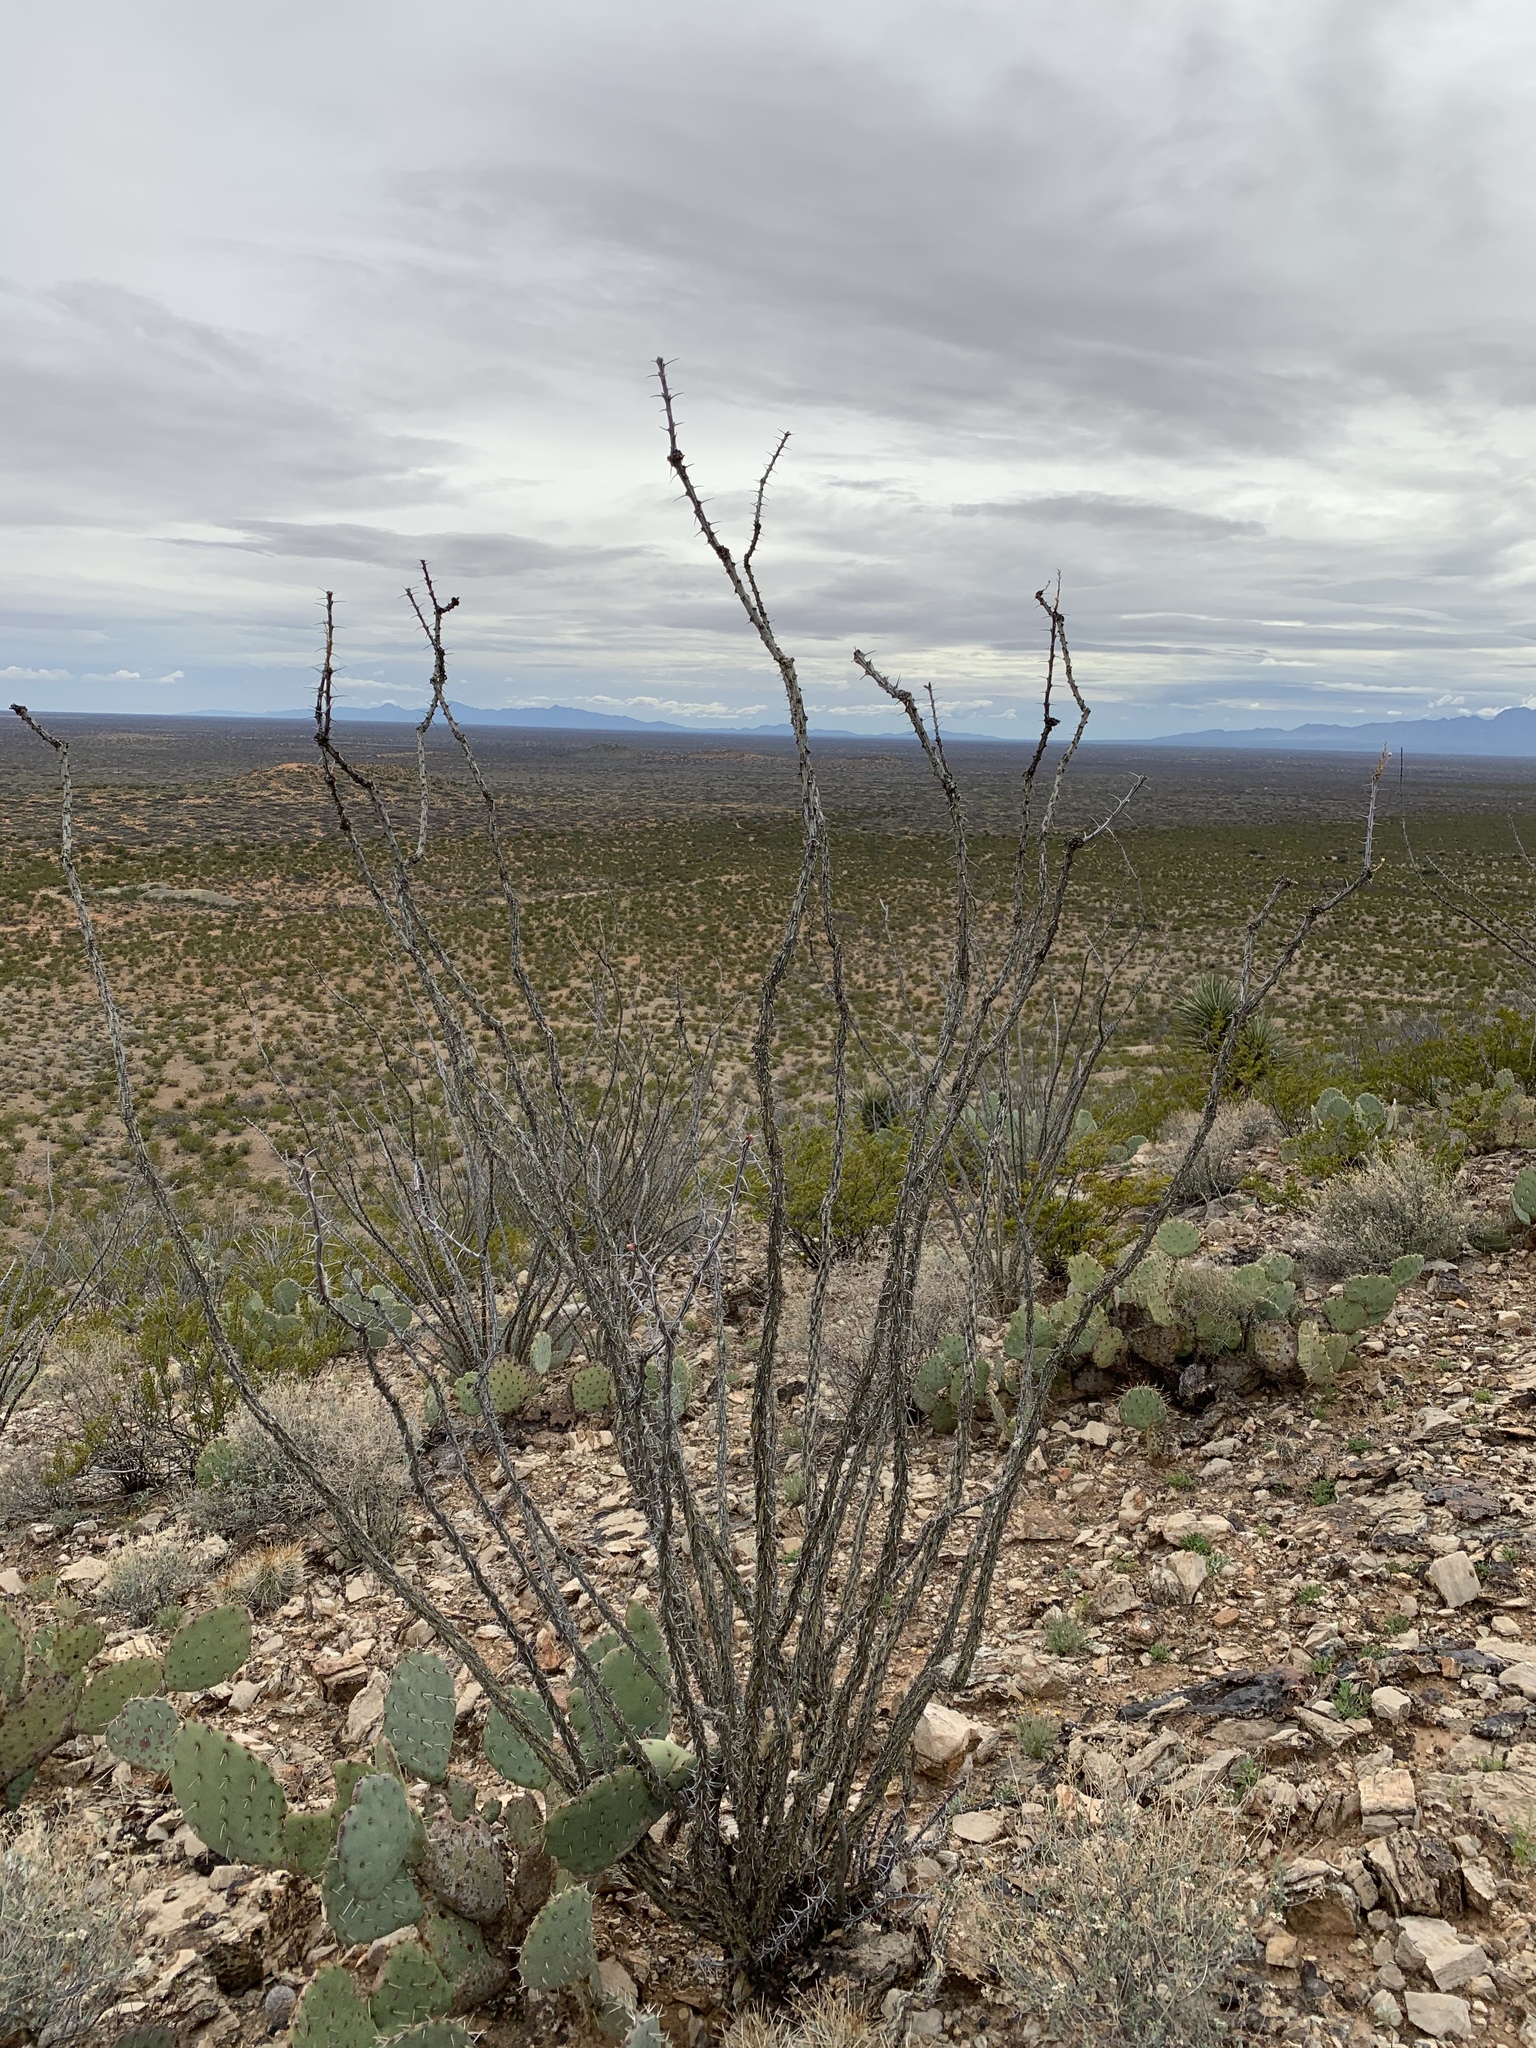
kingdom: Plantae
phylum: Tracheophyta
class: Magnoliopsida
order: Ericales
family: Fouquieriaceae
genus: Fouquieria
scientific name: Fouquieria splendens
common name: Vine-cactus
